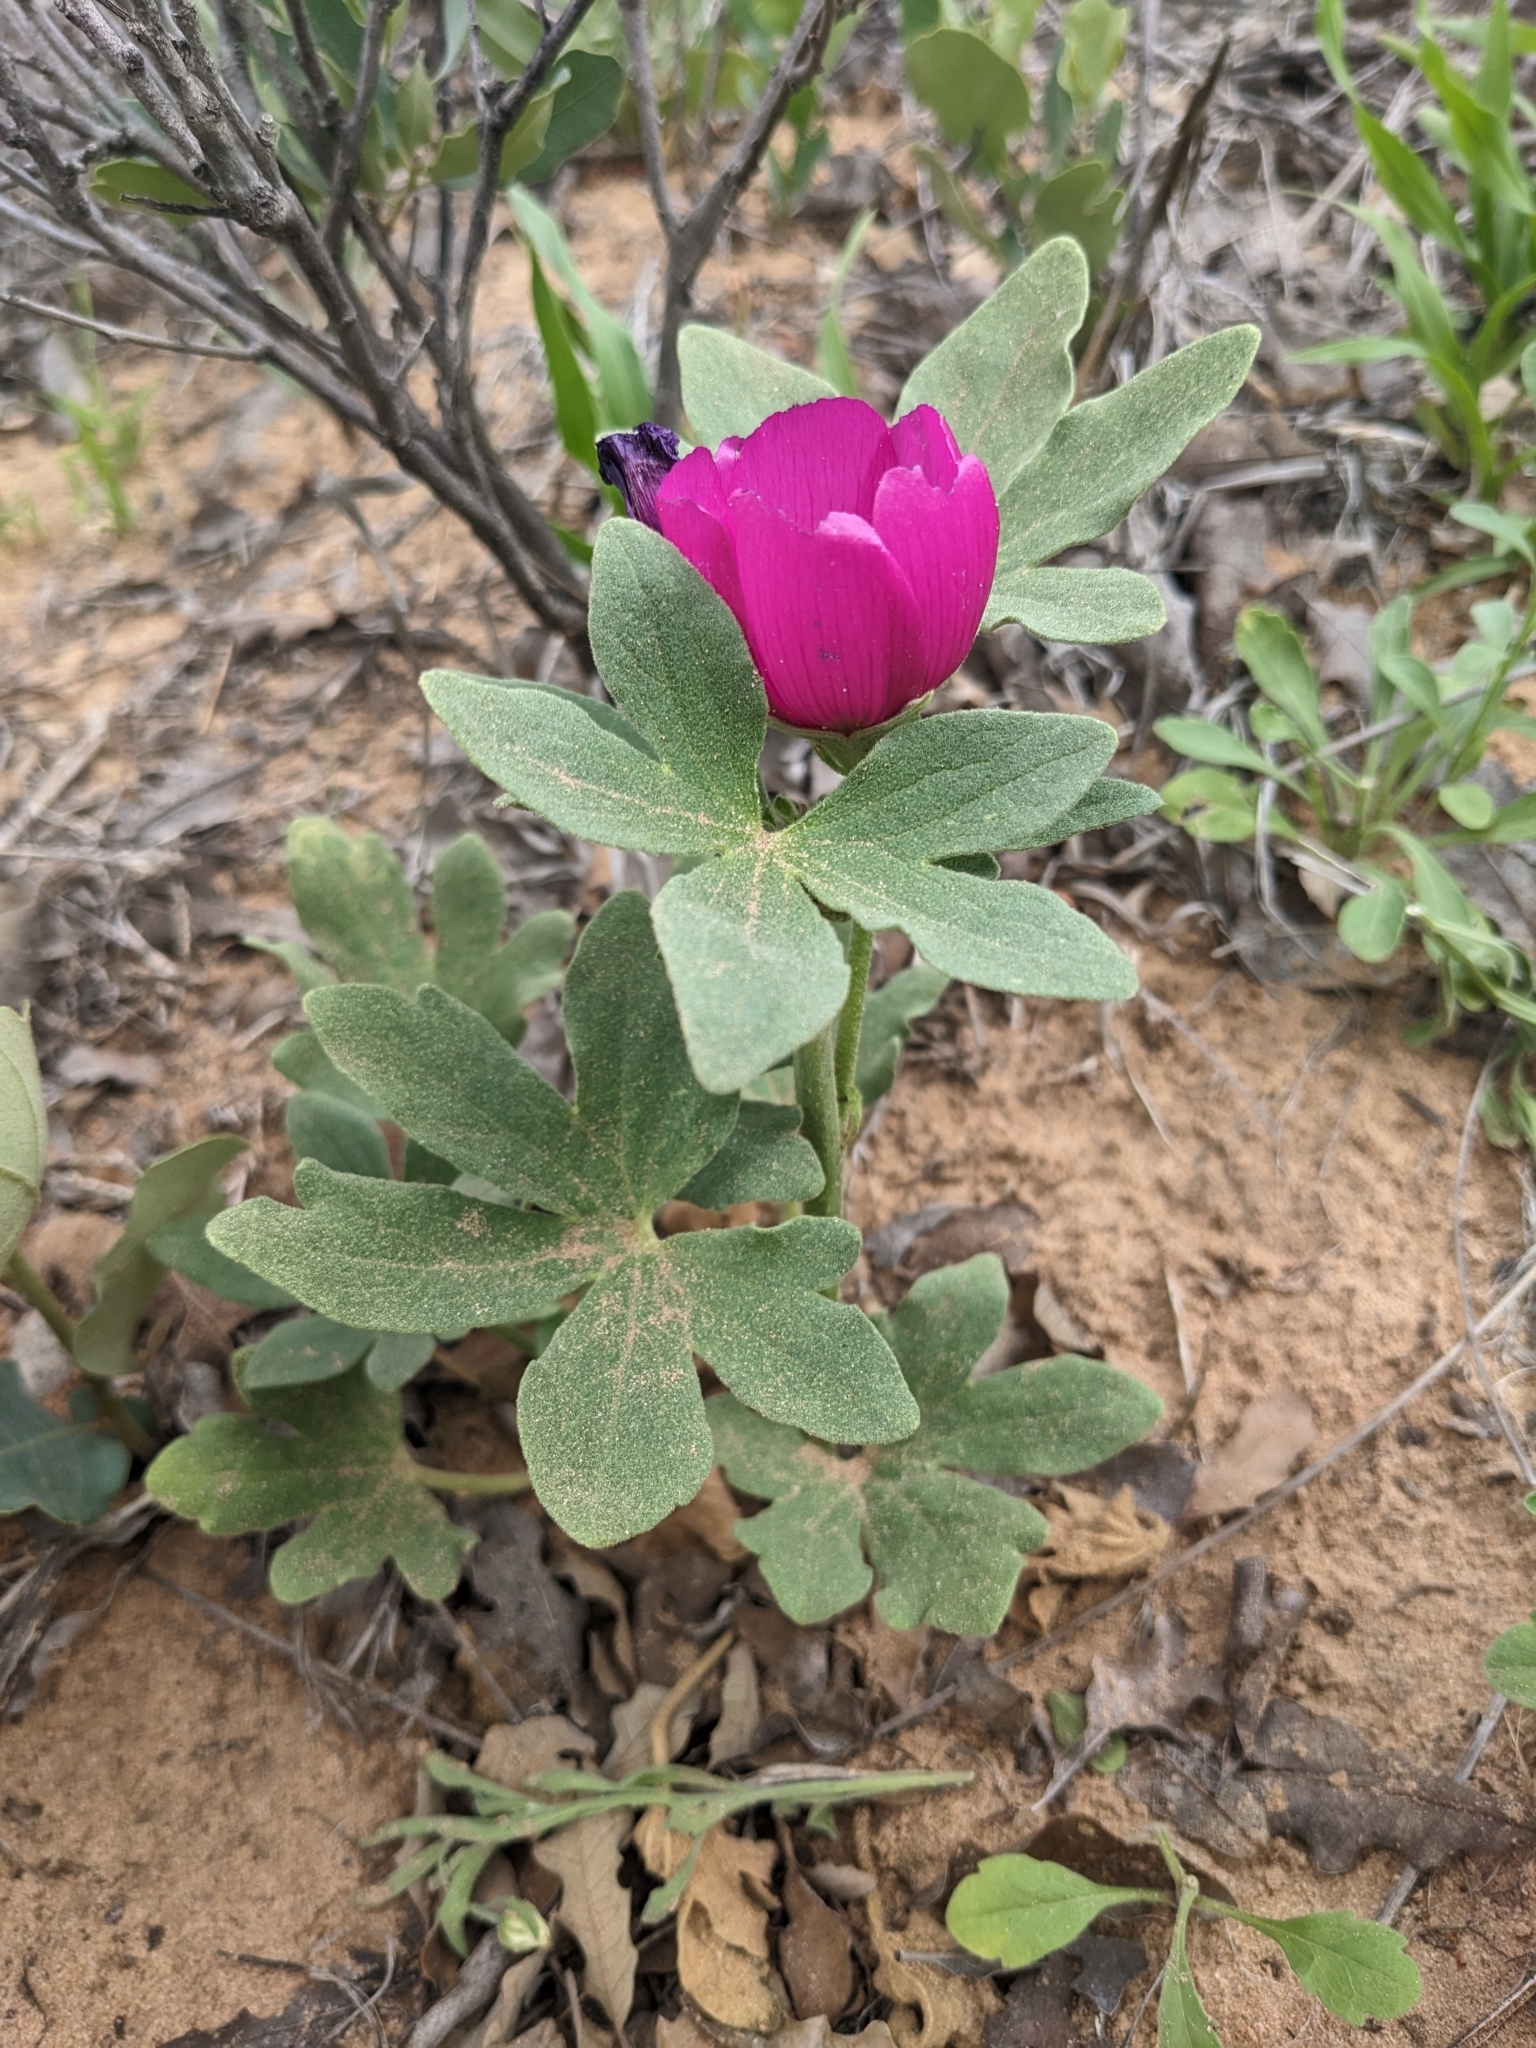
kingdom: Plantae
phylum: Tracheophyta
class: Magnoliopsida
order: Malvales
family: Malvaceae
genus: Callirhoe
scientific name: Callirhoe scabriuscula
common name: Texas poppy-mallow
